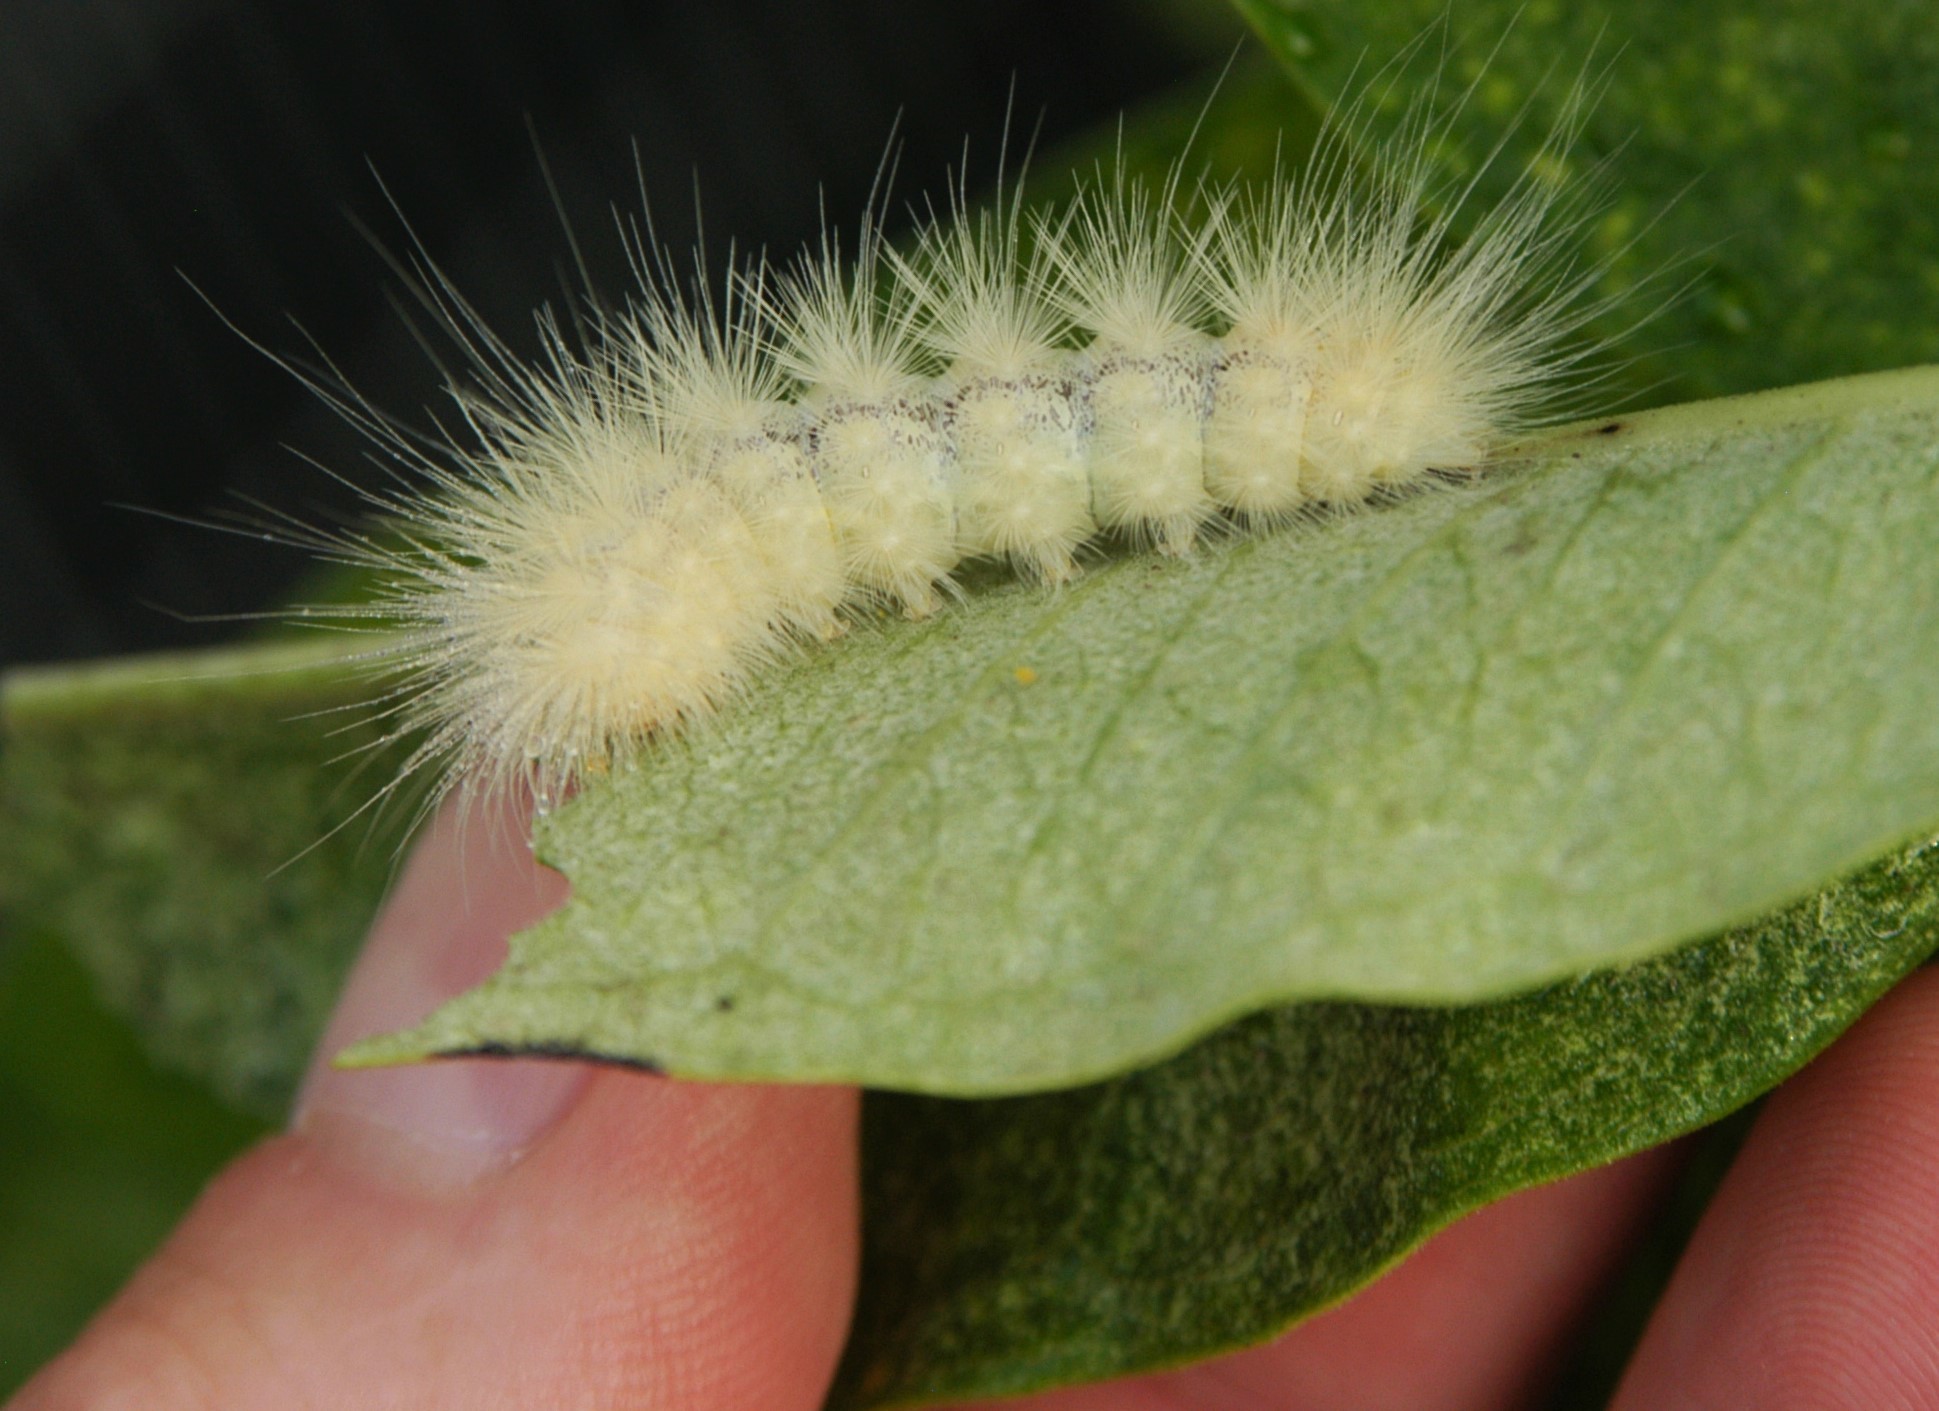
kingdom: Animalia
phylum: Arthropoda
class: Insecta
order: Lepidoptera
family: Erebidae
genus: Spilosoma
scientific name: Spilosoma virginica
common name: Virginia tiger moth
